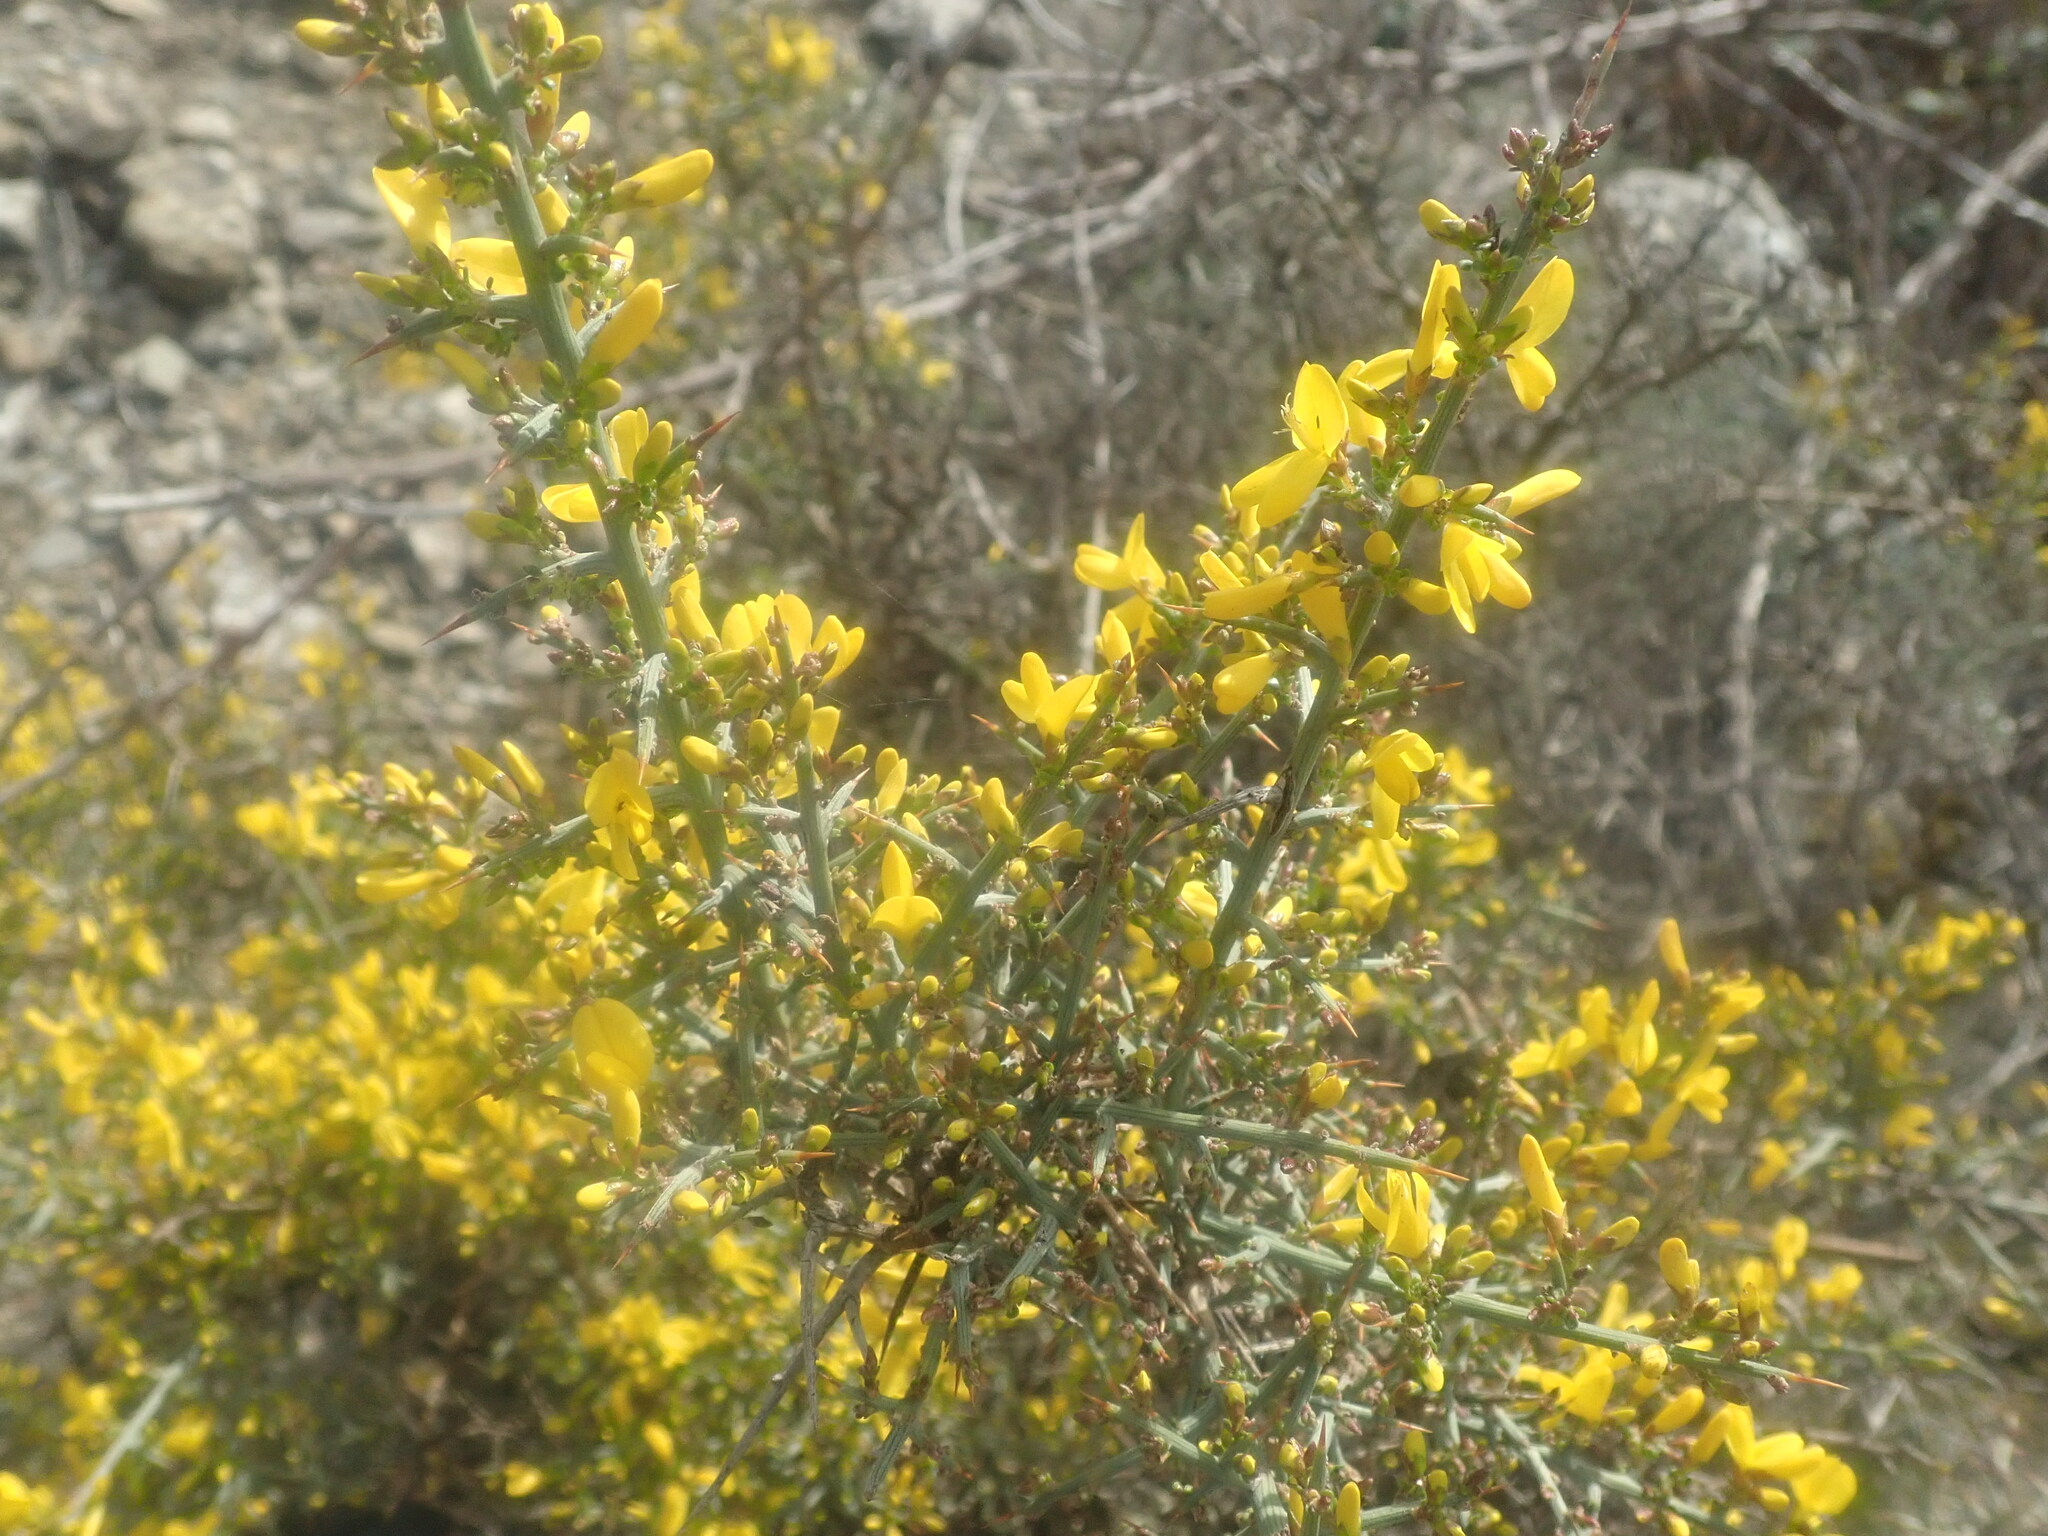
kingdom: Plantae
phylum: Tracheophyta
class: Magnoliopsida
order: Fabales
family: Fabaceae
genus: Genista
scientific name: Genista scorpius
